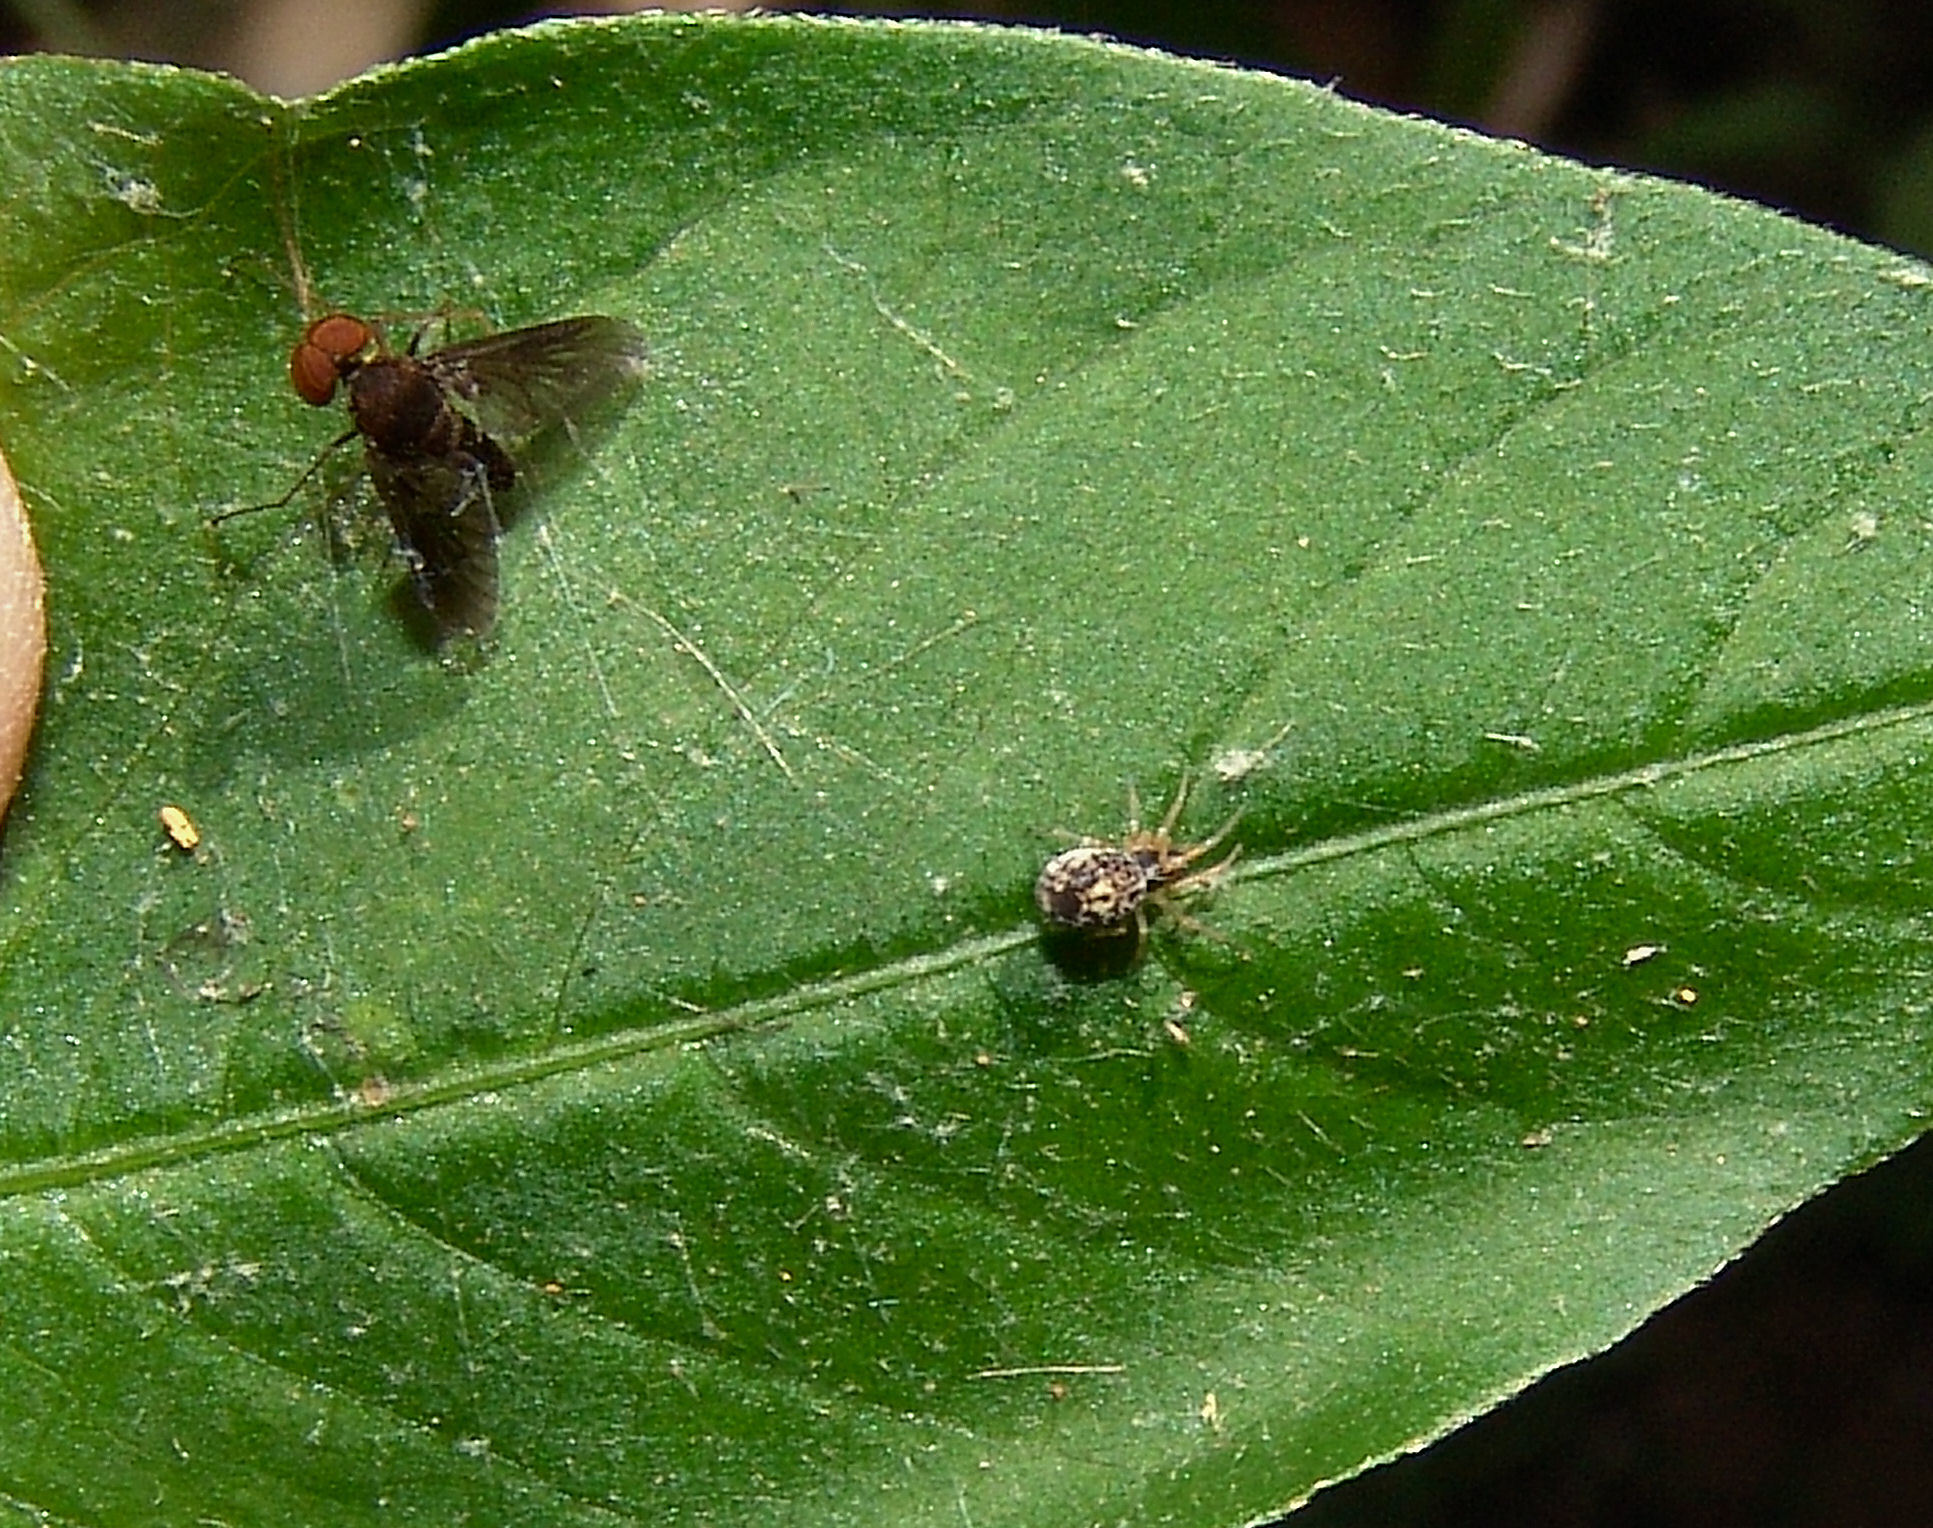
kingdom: Animalia
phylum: Arthropoda
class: Insecta
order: Diptera
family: Rhagionidae
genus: Chrysopilus
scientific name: Chrysopilus quadratus
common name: Quadrate snipe fly
